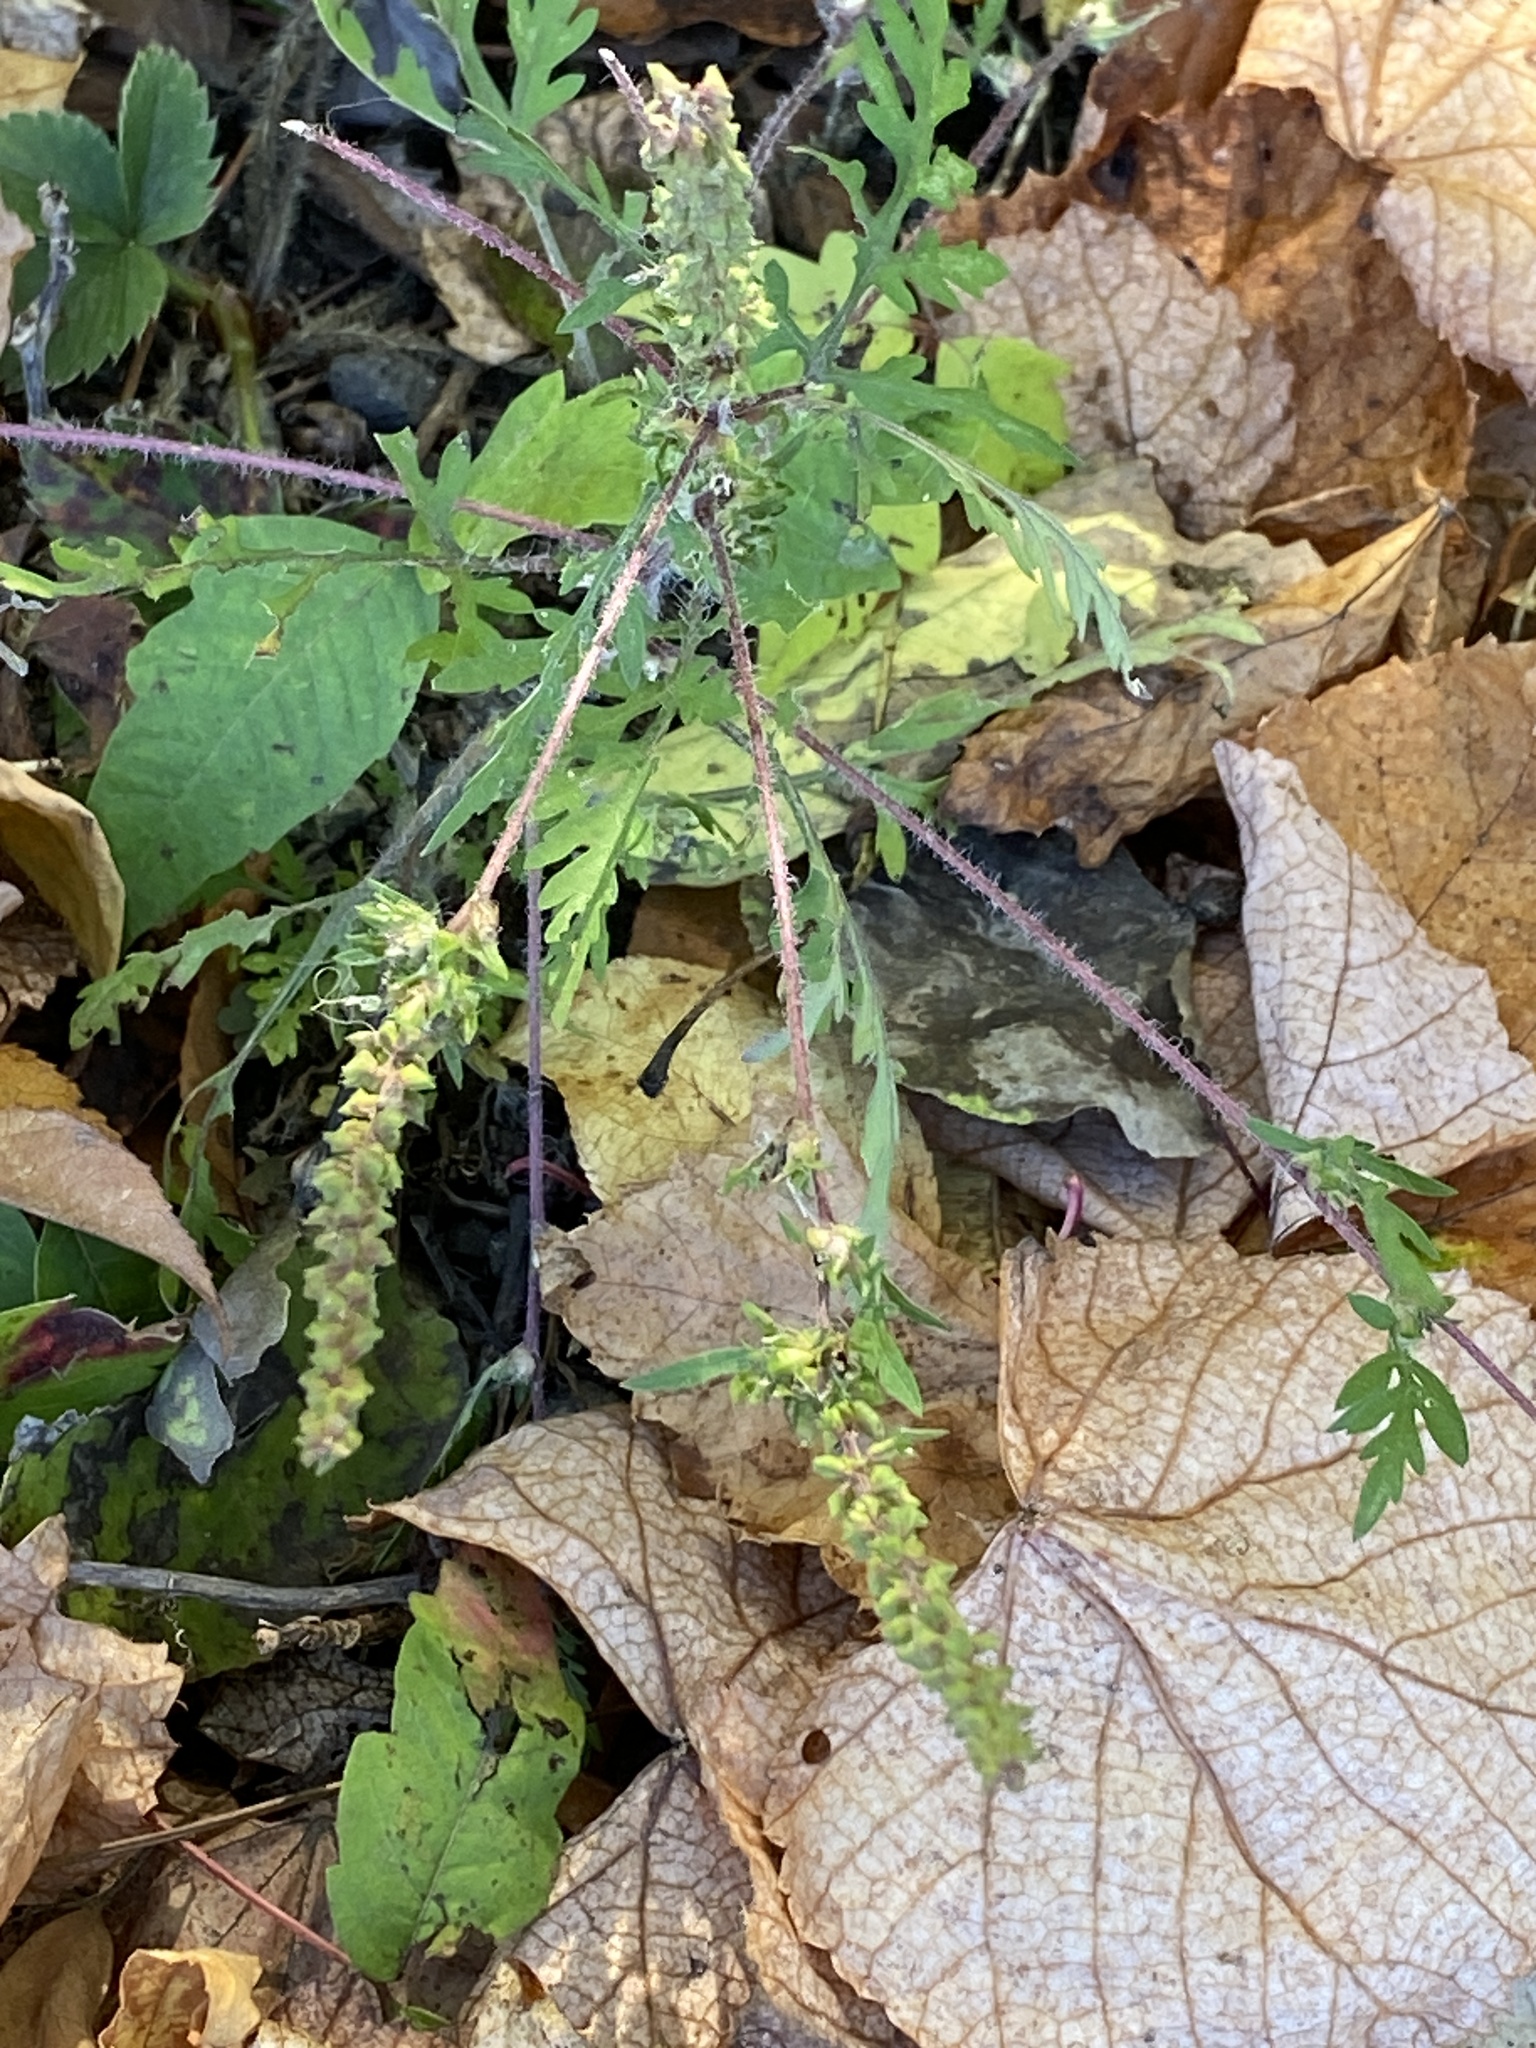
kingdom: Plantae
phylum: Tracheophyta
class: Magnoliopsida
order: Asterales
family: Asteraceae
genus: Ambrosia
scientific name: Ambrosia artemisiifolia
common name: Annual ragweed
